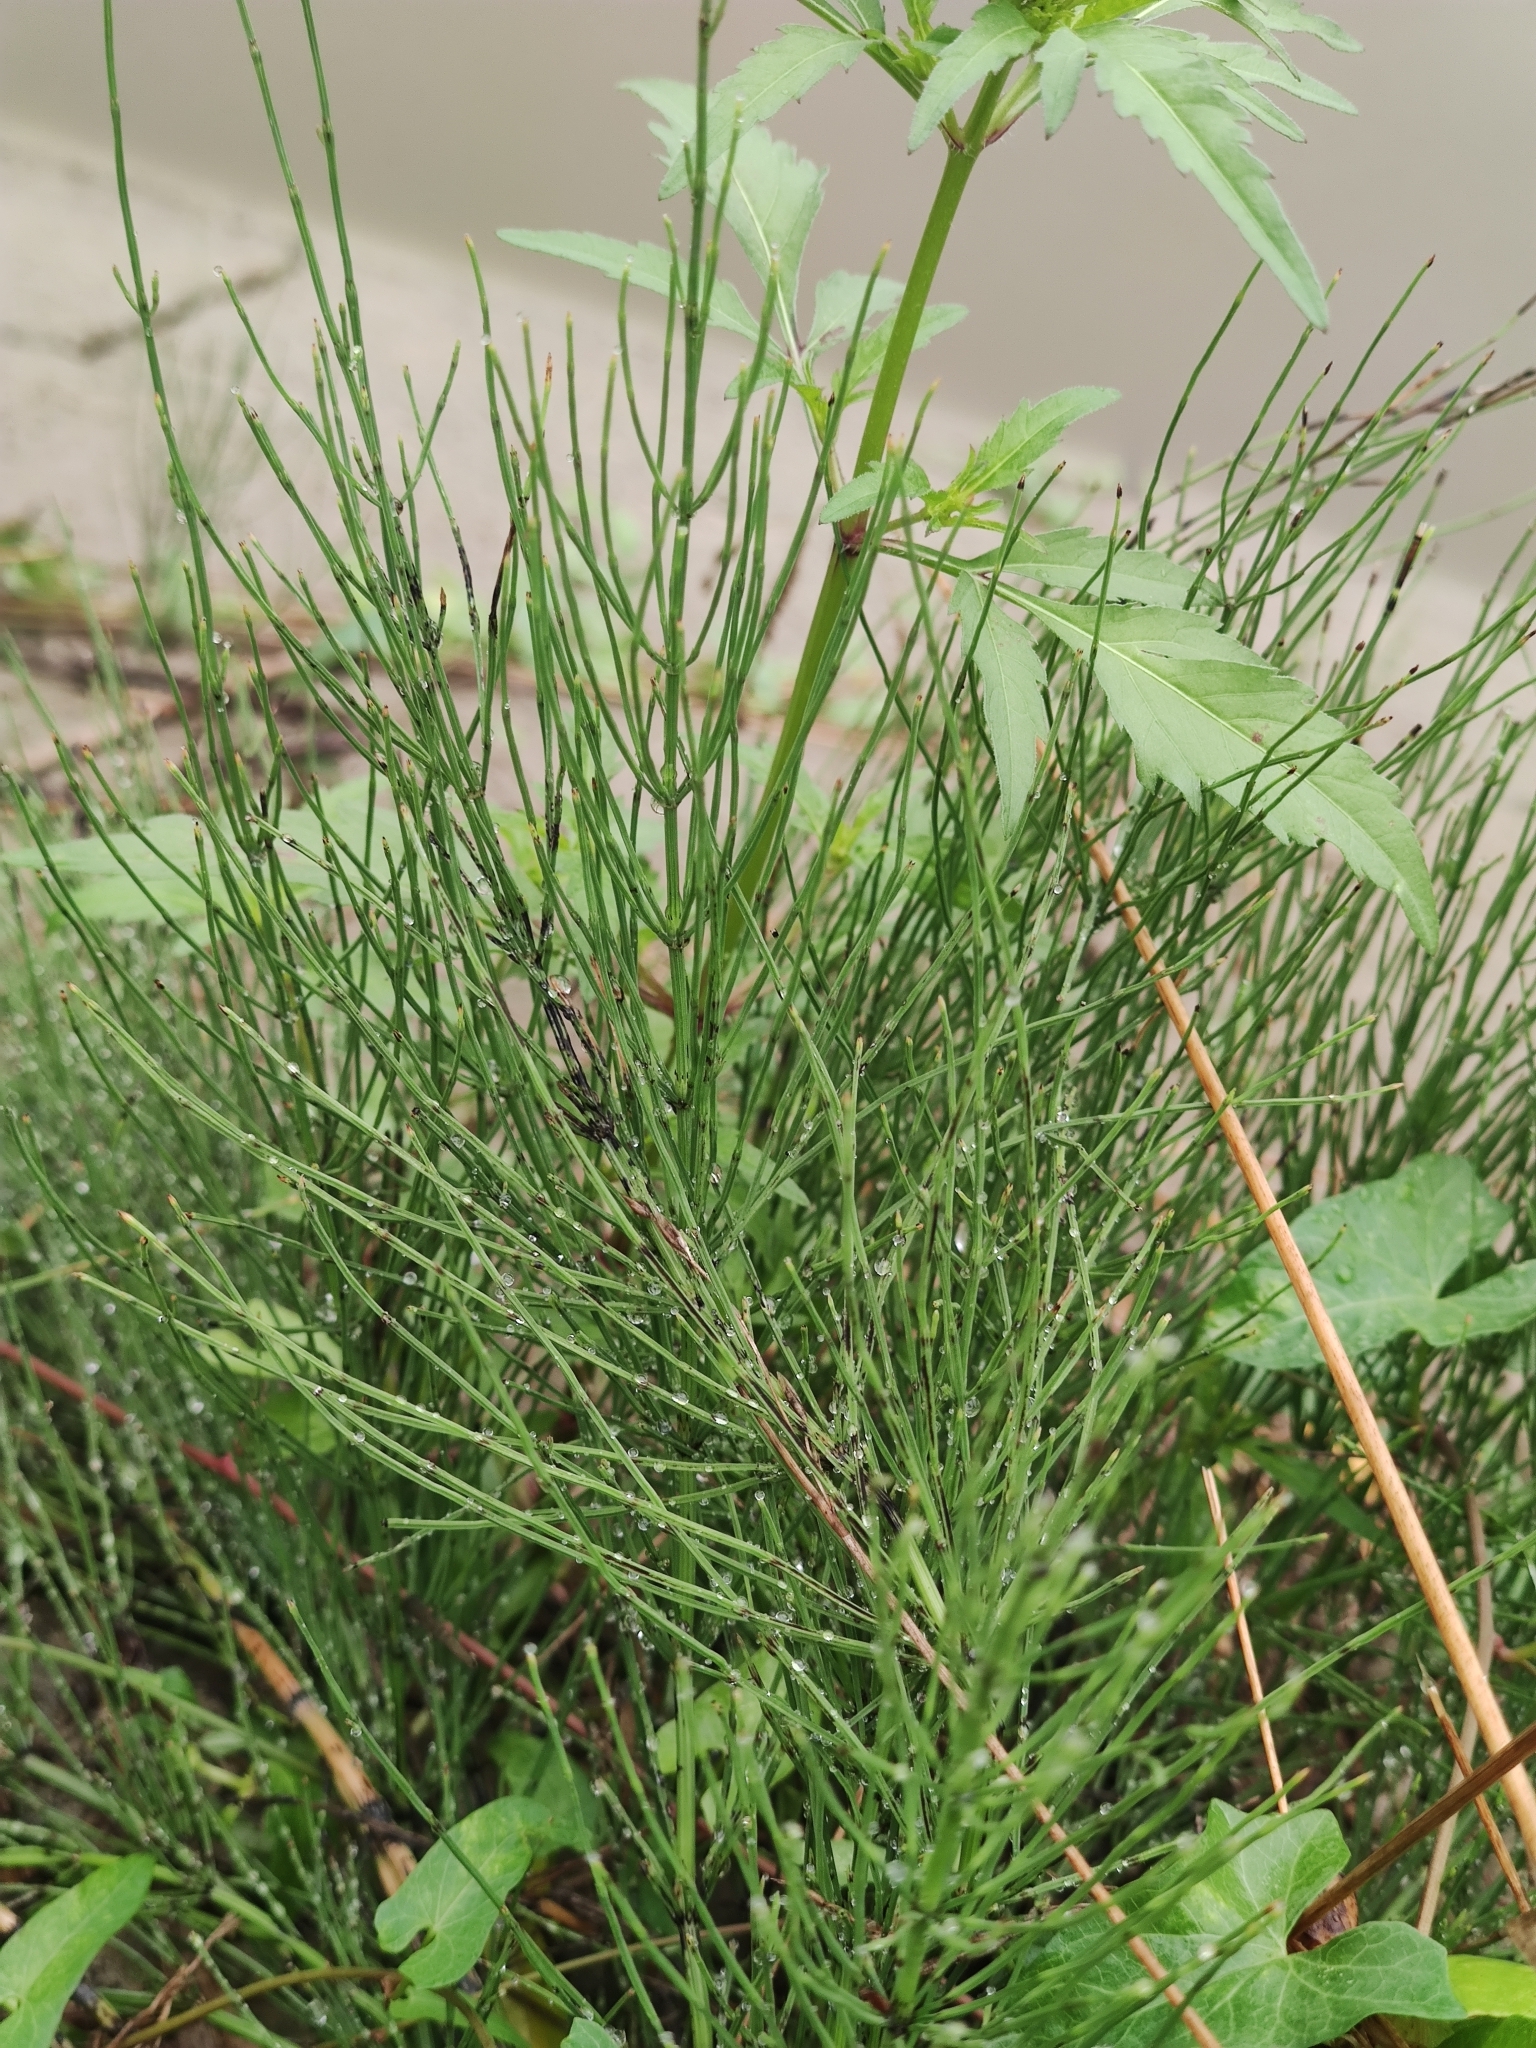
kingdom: Plantae
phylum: Tracheophyta
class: Polypodiopsida
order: Equisetales
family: Equisetaceae
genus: Equisetum
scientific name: Equisetum arvense
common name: Field horsetail
